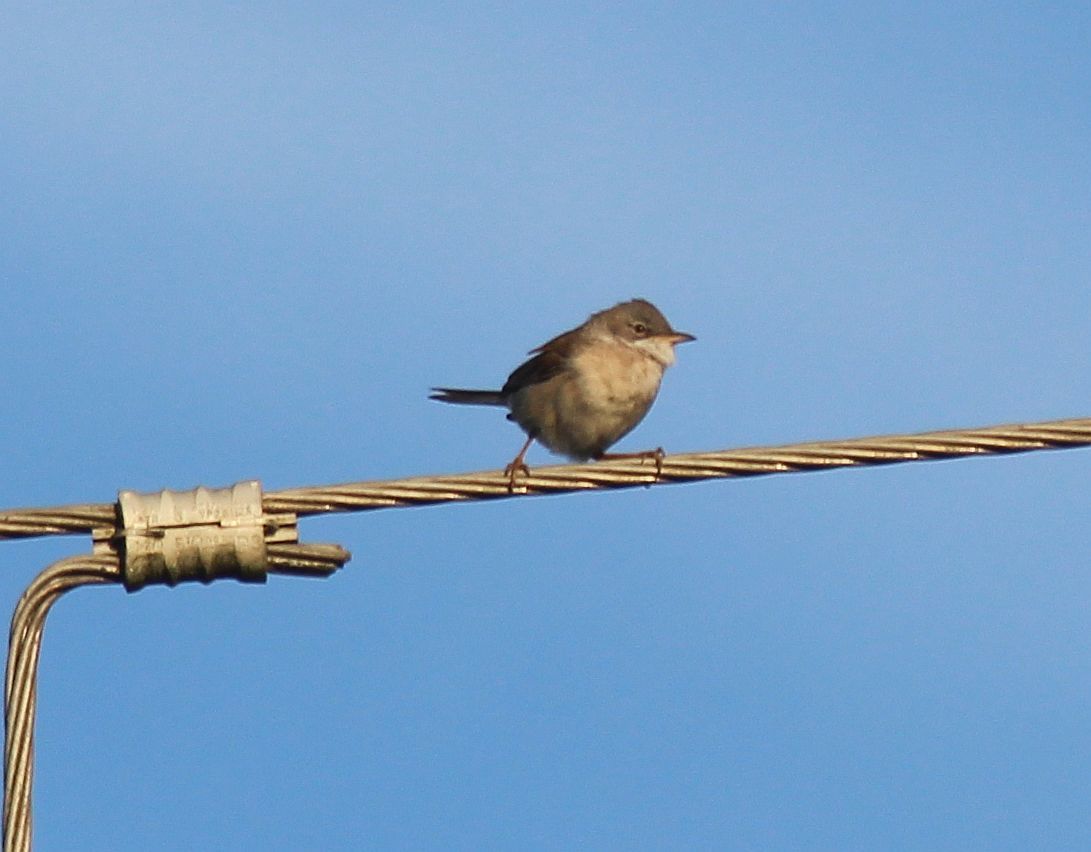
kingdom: Animalia
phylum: Chordata
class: Aves
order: Passeriformes
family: Sylviidae
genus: Sylvia
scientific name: Sylvia communis
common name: Common whitethroat
